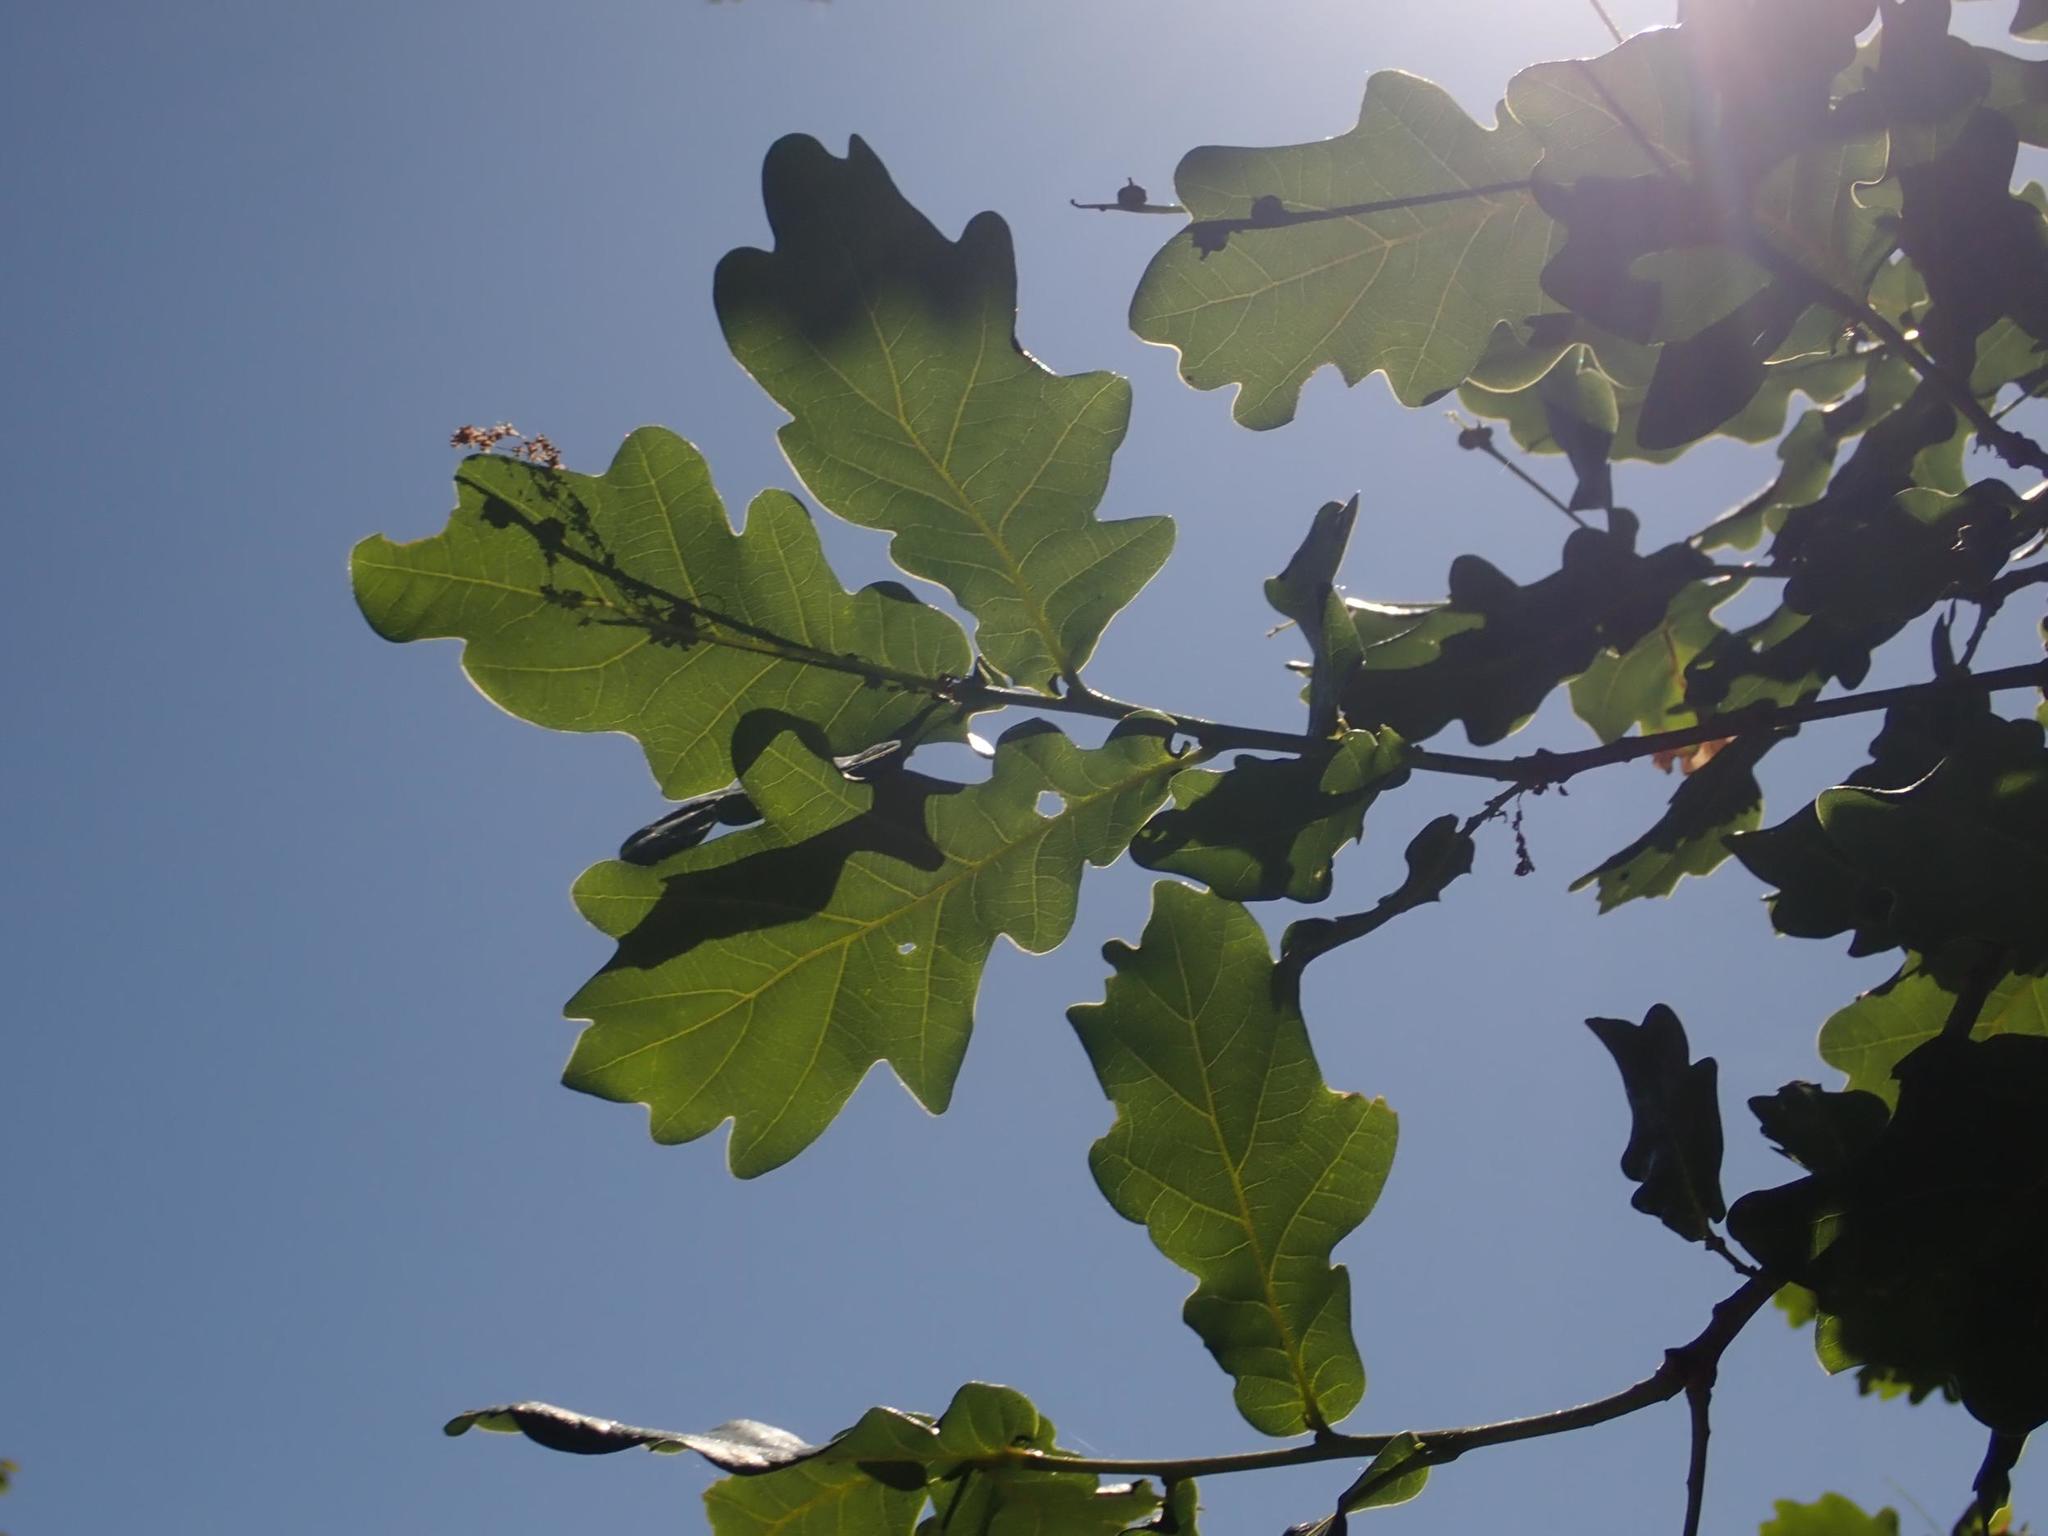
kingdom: Plantae
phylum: Tracheophyta
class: Magnoliopsida
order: Fagales
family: Fagaceae
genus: Quercus
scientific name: Quercus robur
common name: Pedunculate oak
